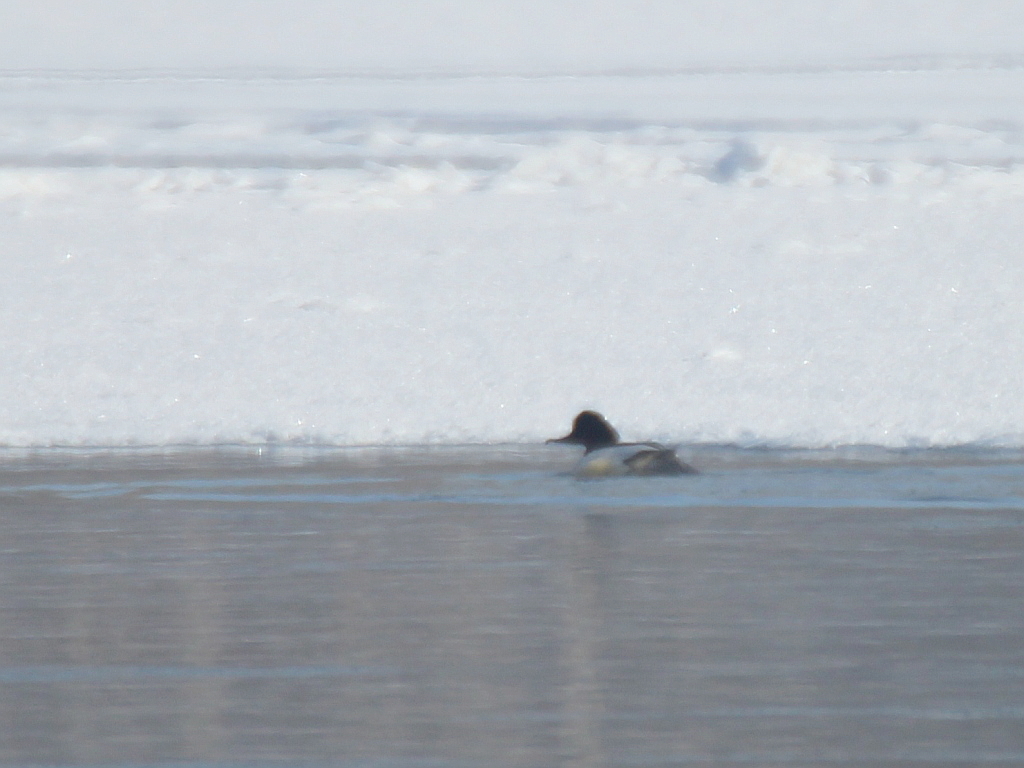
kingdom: Animalia
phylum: Chordata
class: Aves
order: Anseriformes
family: Anatidae
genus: Mergus
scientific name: Mergus merganser
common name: Common merganser
